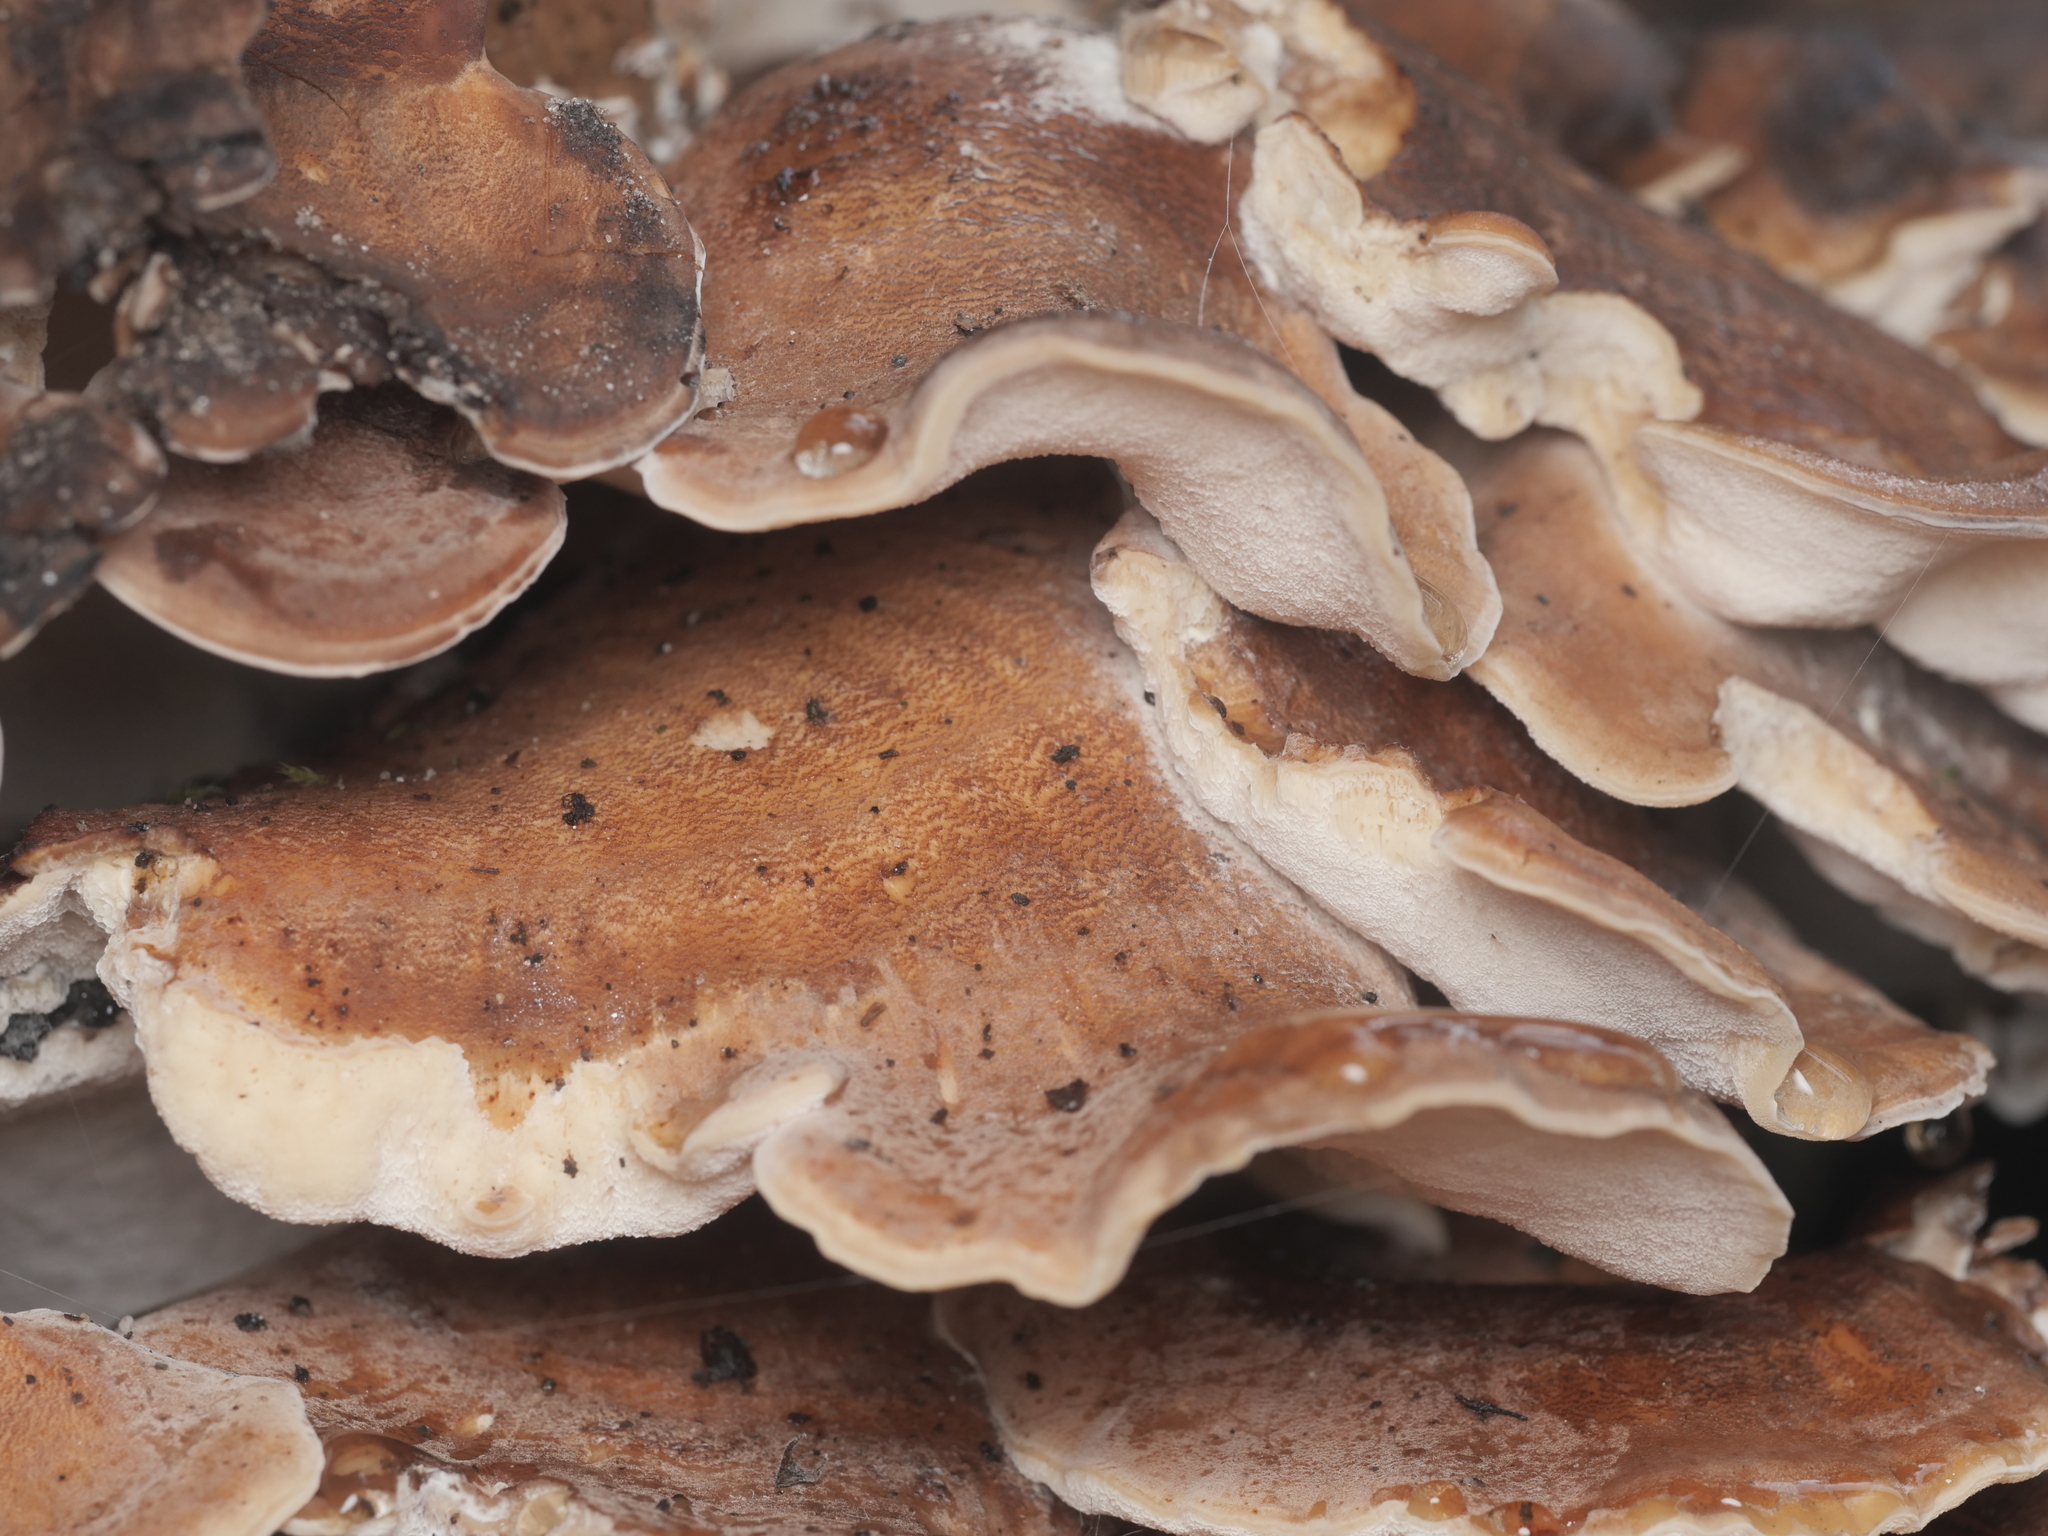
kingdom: Fungi
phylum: Basidiomycota
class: Agaricomycetes
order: Polyporales
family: Meripilaceae
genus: Meripilus
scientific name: Meripilus giganteus
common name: Giant polypore
